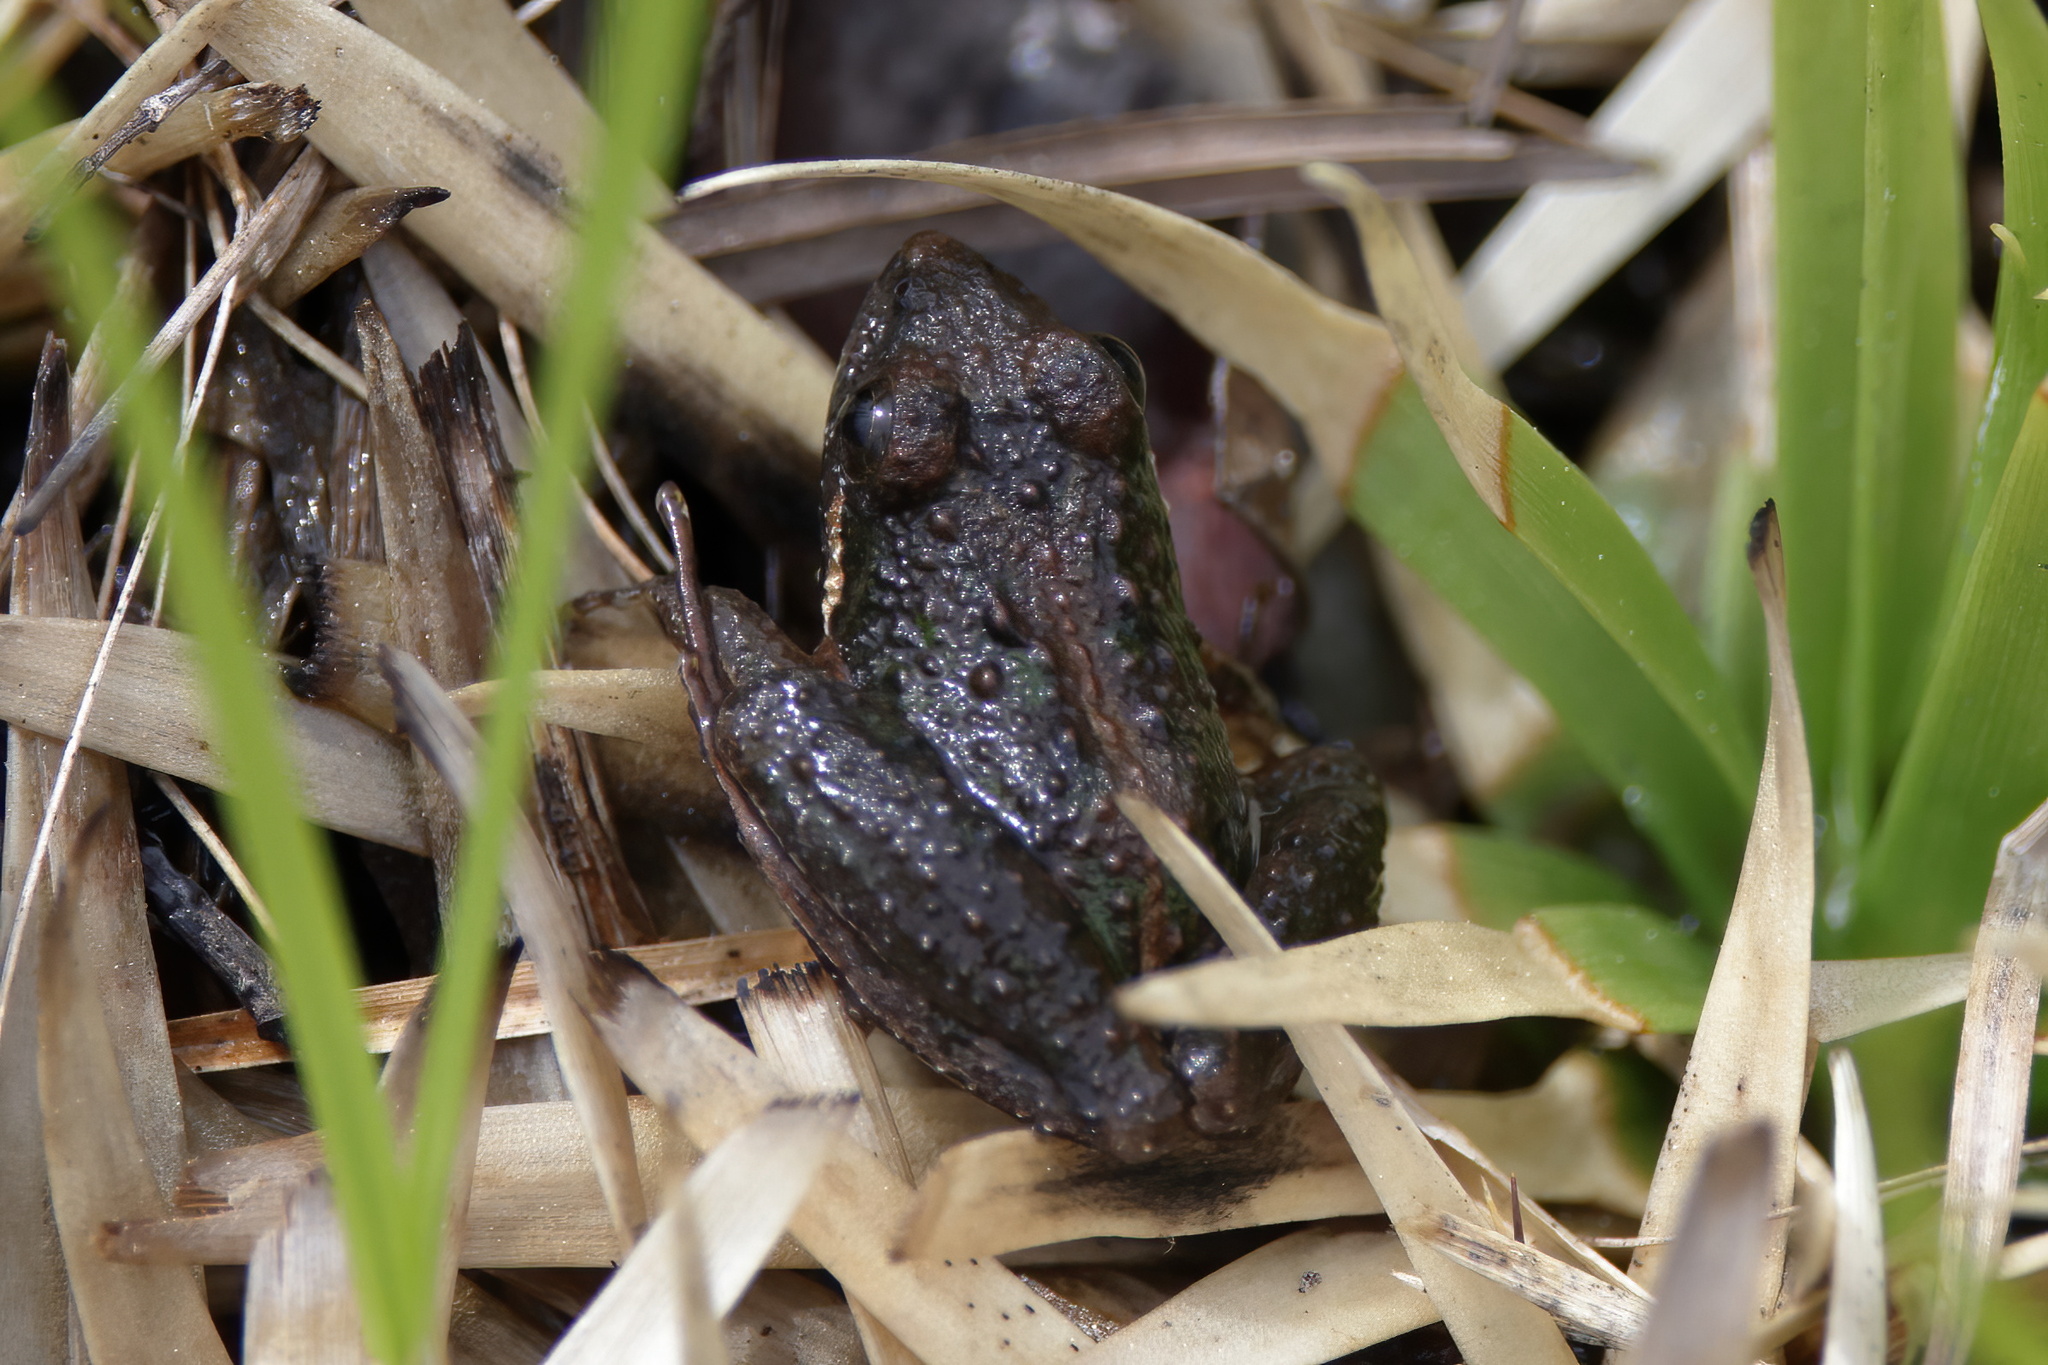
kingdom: Animalia
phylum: Chordata
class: Amphibia
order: Anura
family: Hylidae
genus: Acris
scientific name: Acris gryllus
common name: Southern cricket frog
